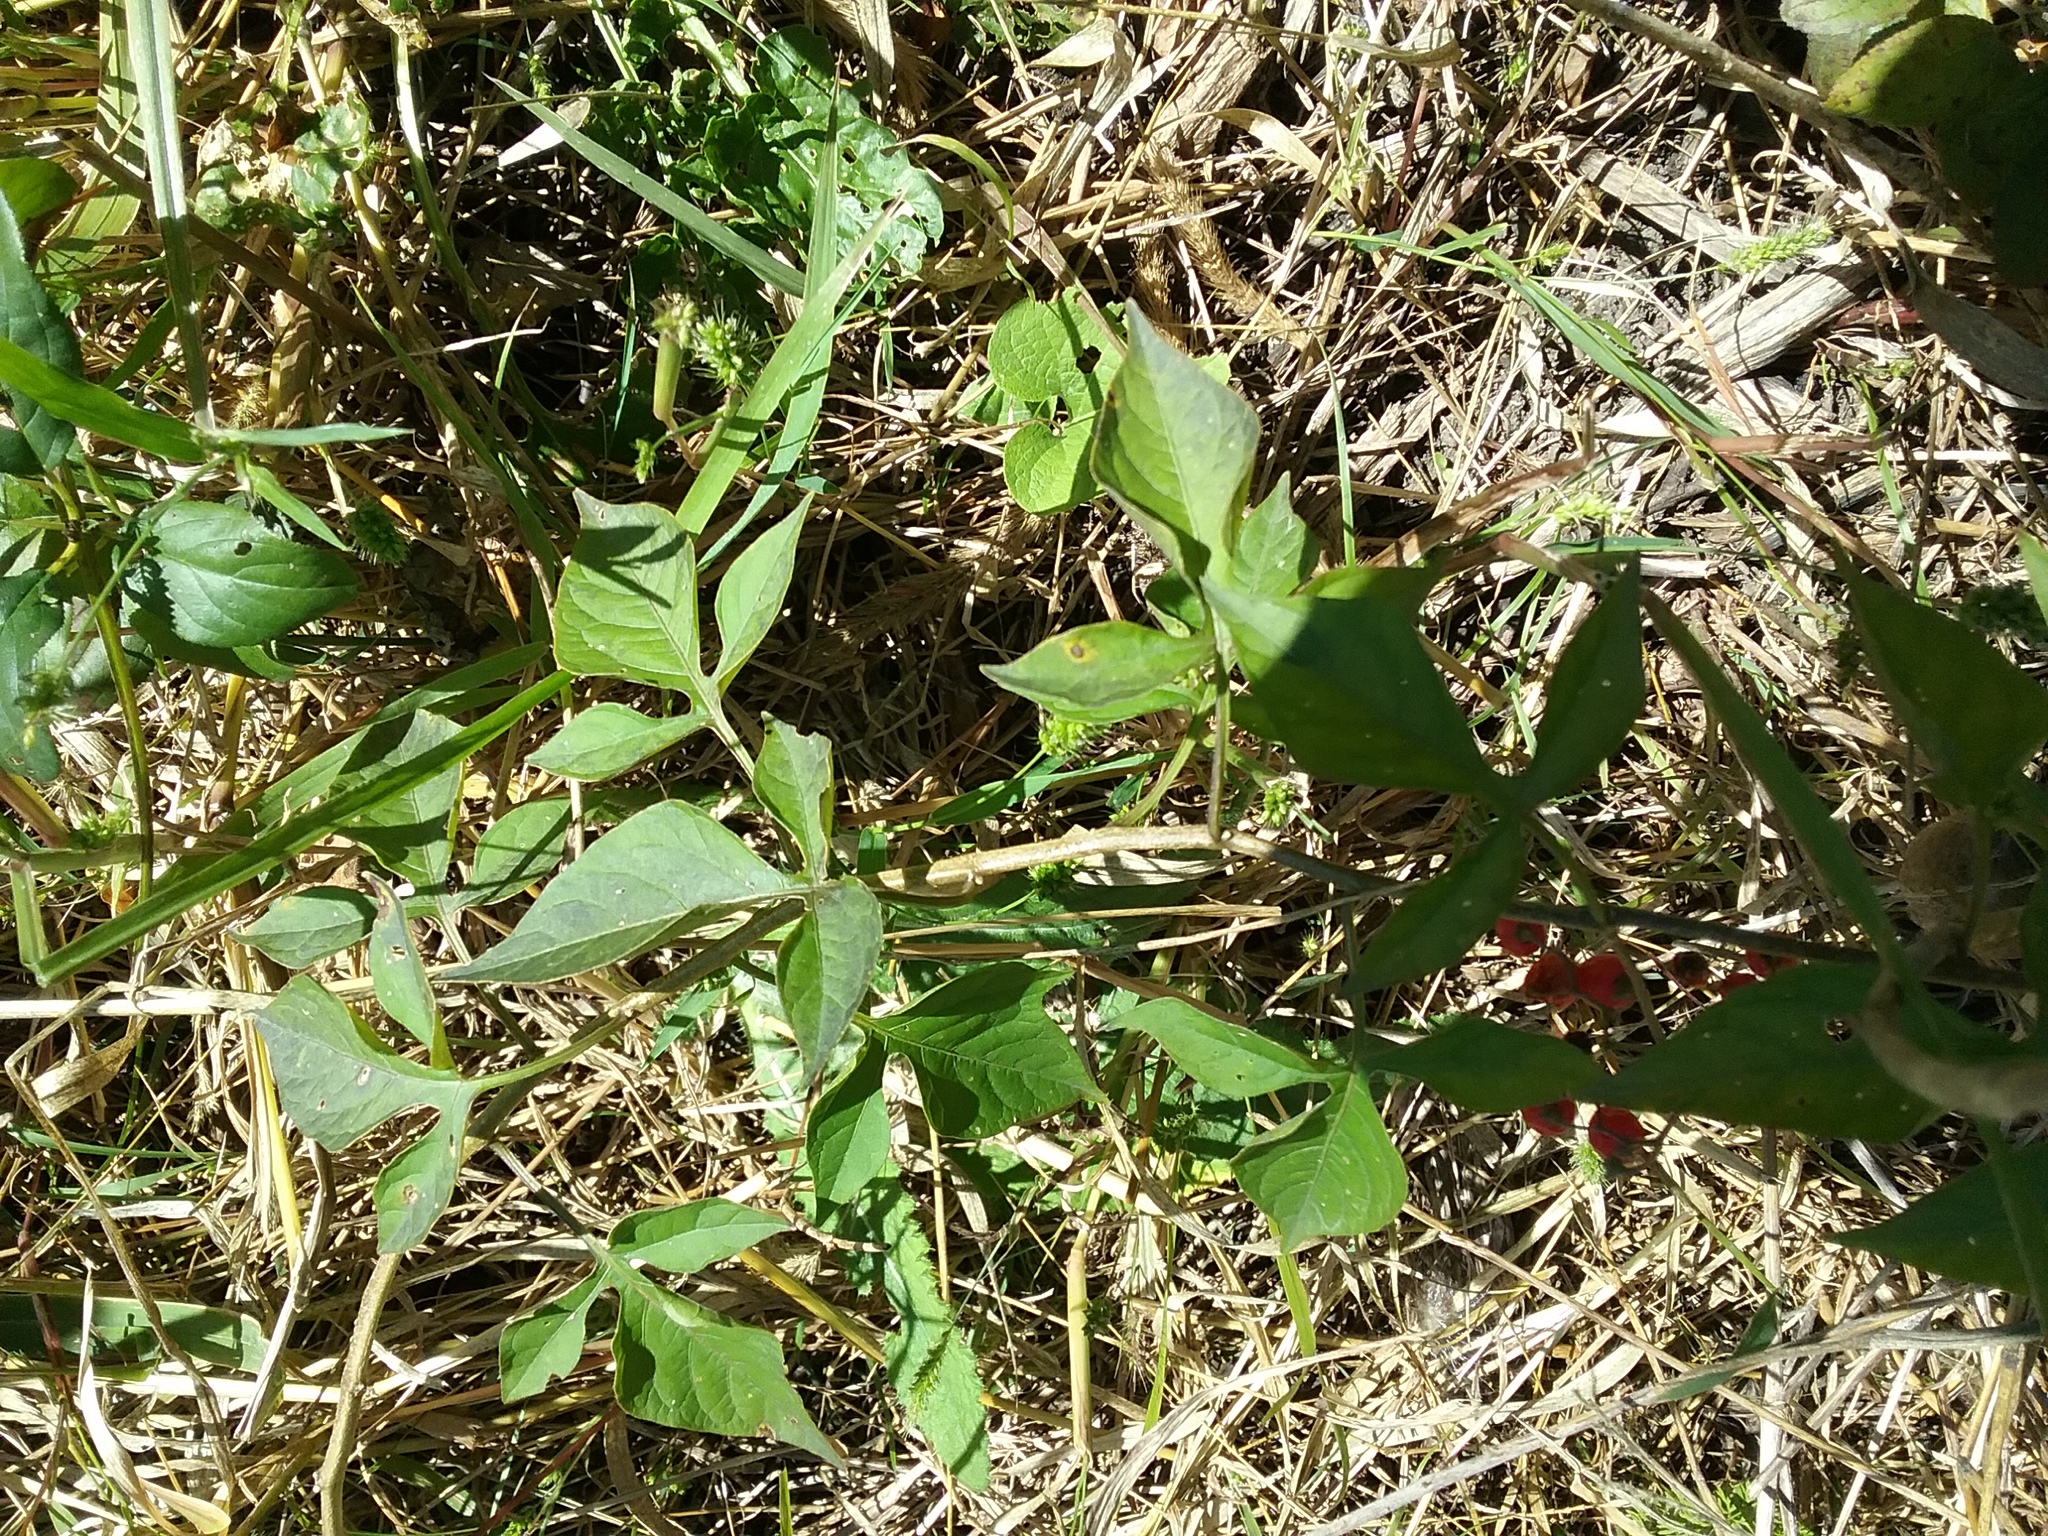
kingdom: Plantae
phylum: Tracheophyta
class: Magnoliopsida
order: Solanales
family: Solanaceae
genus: Solanum
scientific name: Solanum dulcamara
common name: Climbing nightshade
